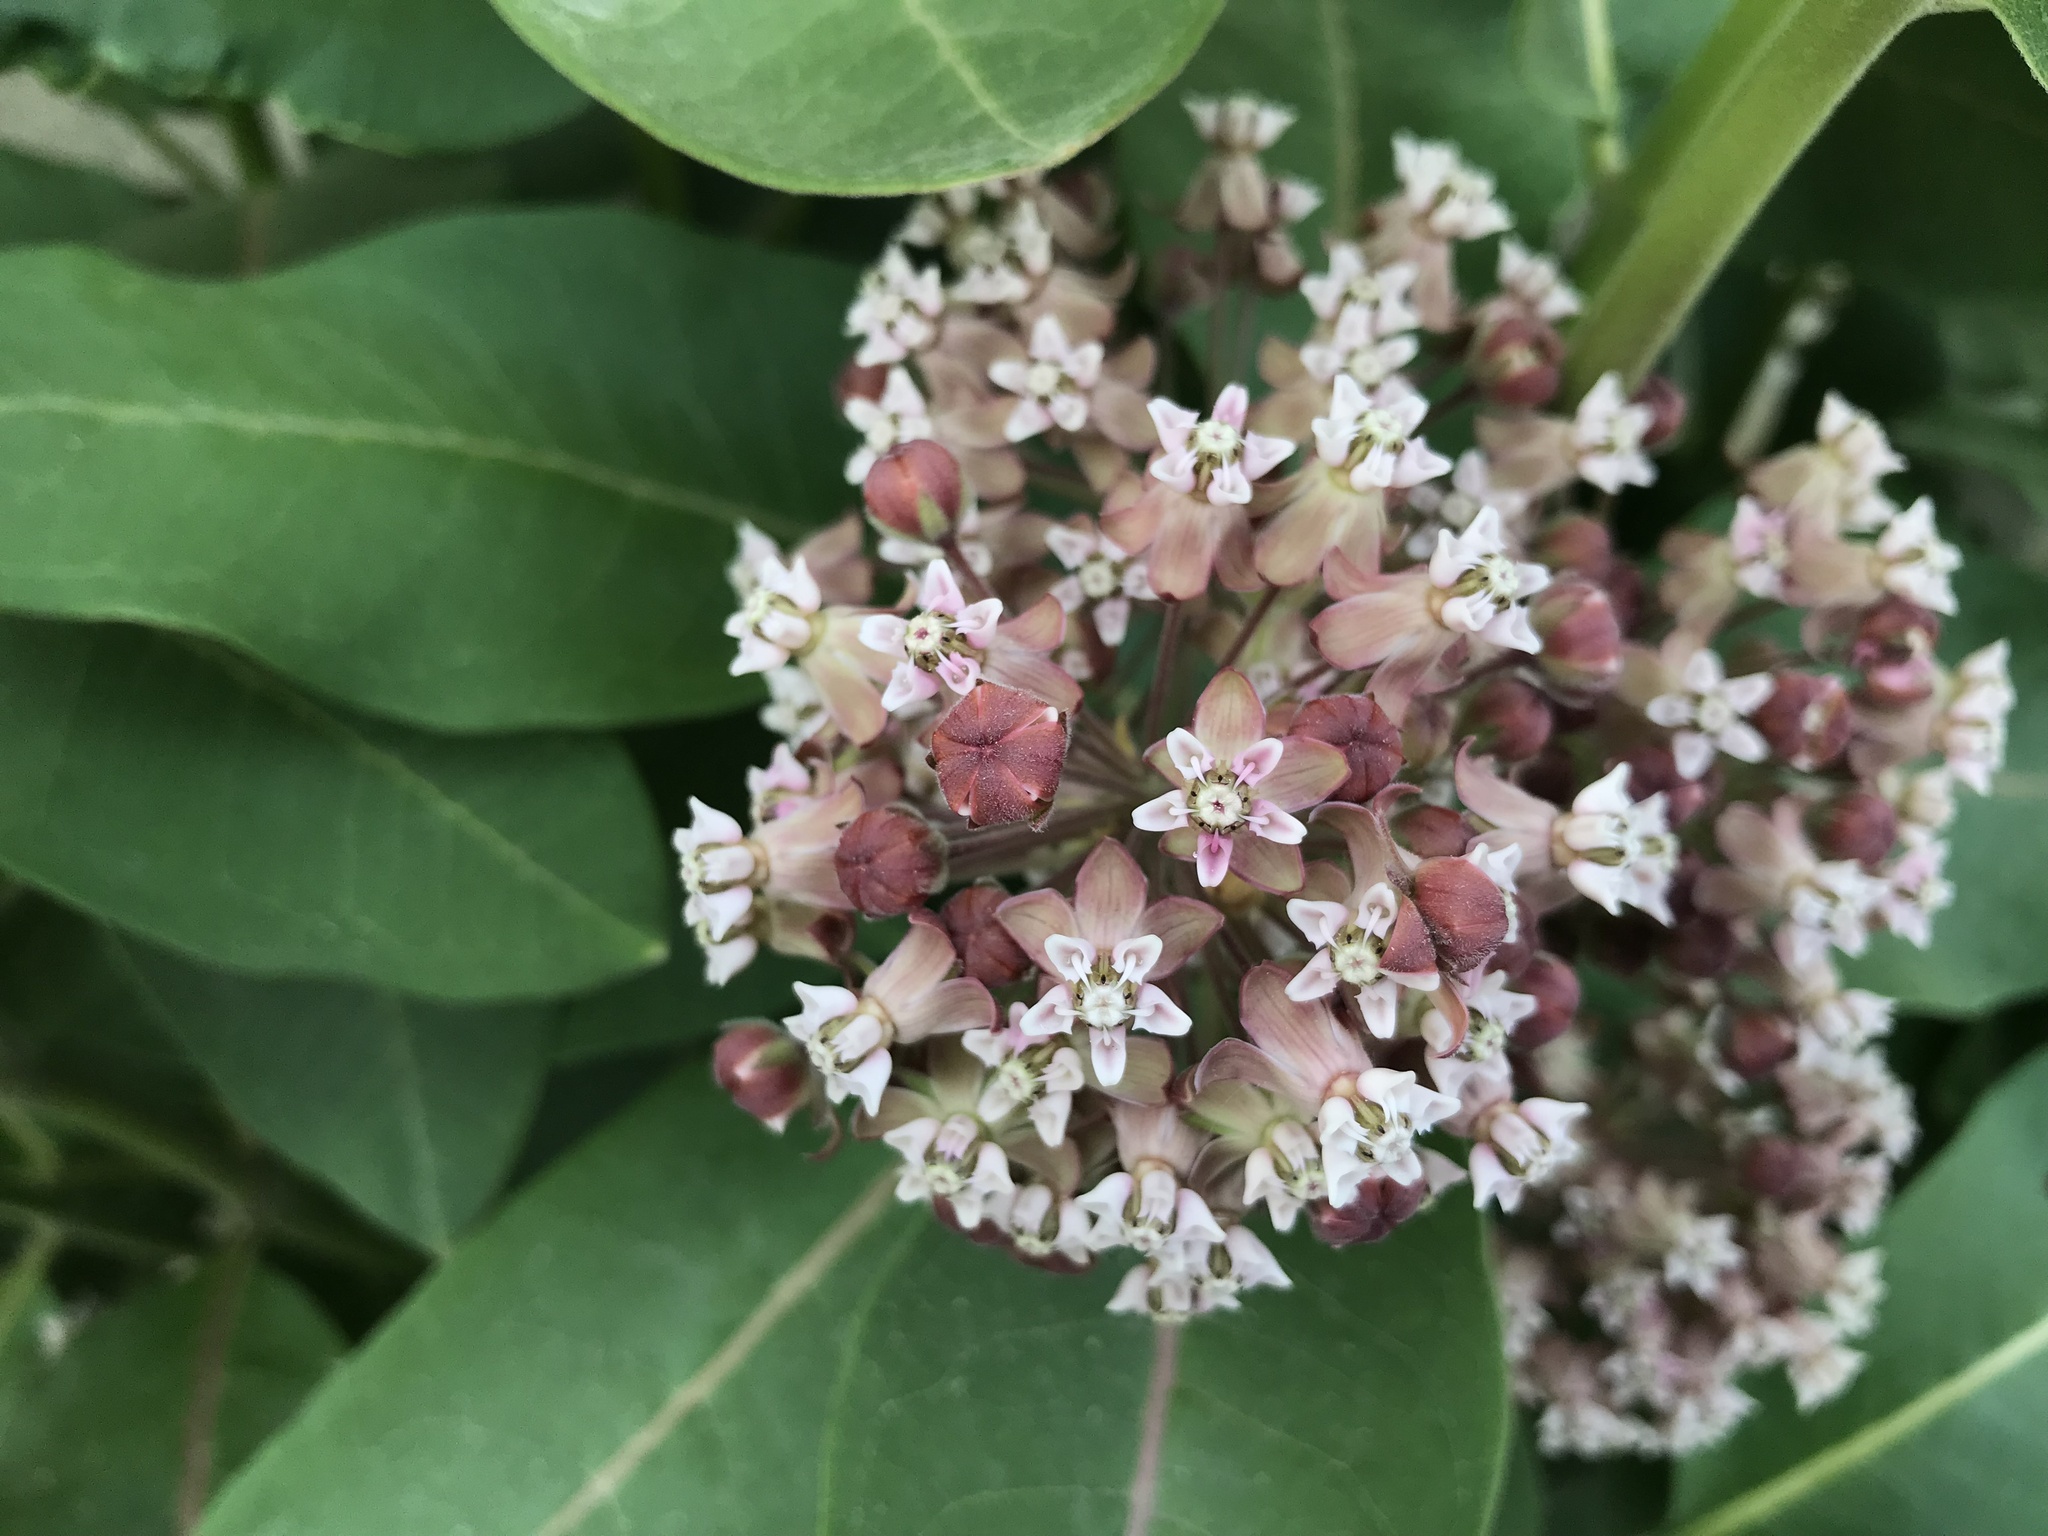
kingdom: Plantae
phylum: Tracheophyta
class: Magnoliopsida
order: Gentianales
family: Apocynaceae
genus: Asclepias
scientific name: Asclepias syriaca
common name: Common milkweed
